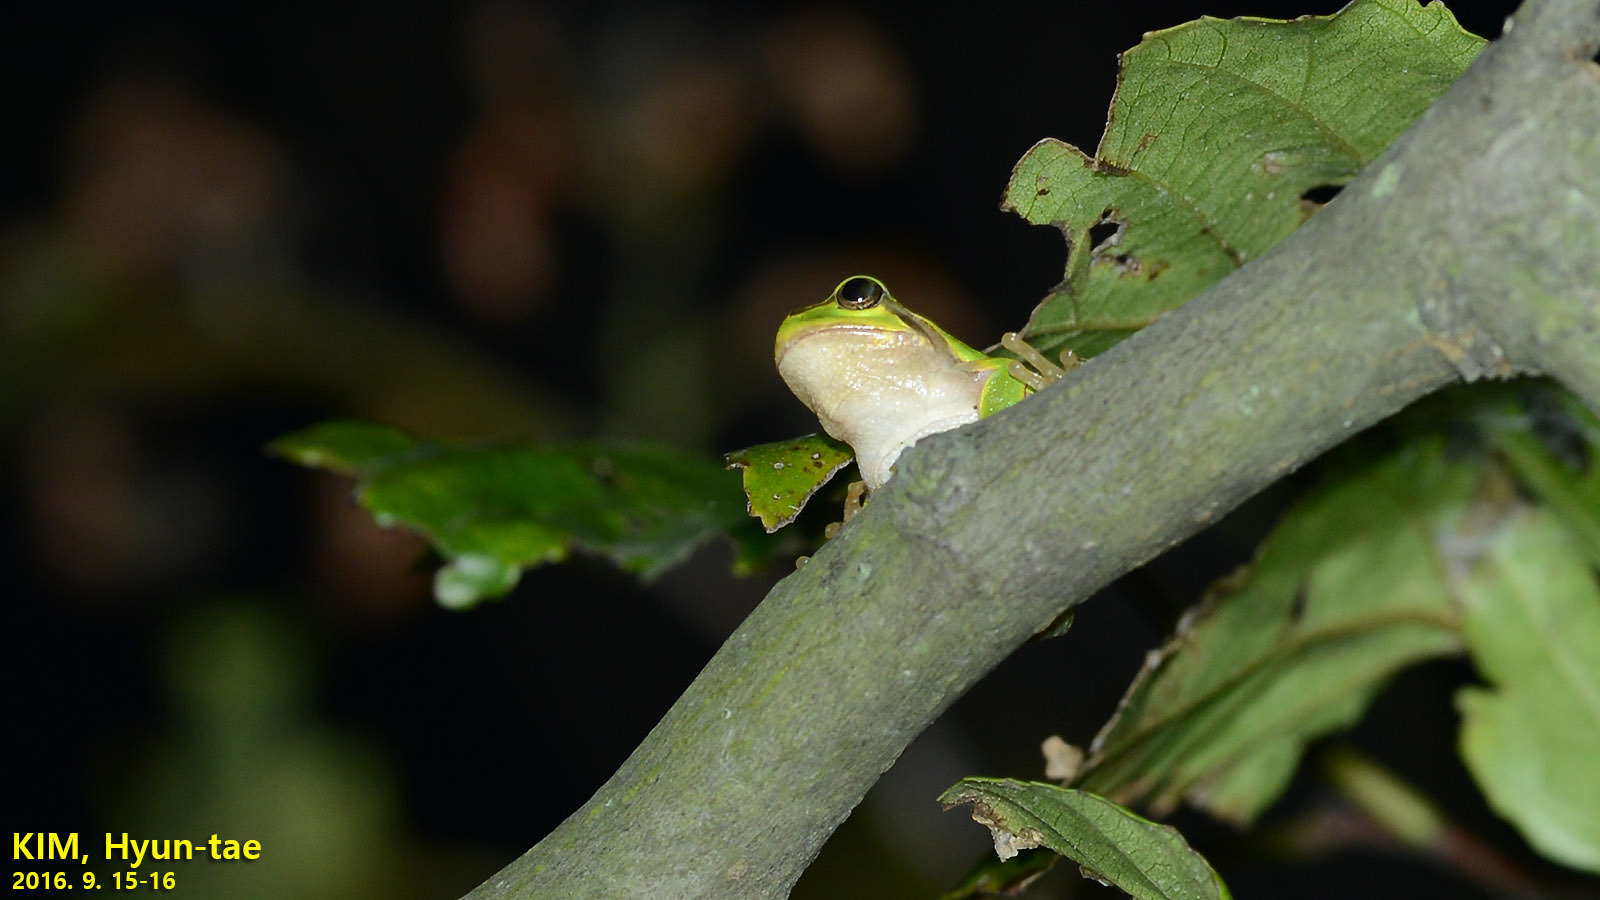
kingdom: Animalia
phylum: Chordata
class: Amphibia
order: Anura
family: Hylidae
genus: Dryophytes
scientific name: Dryophytes japonicus
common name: Japanese treefrog
